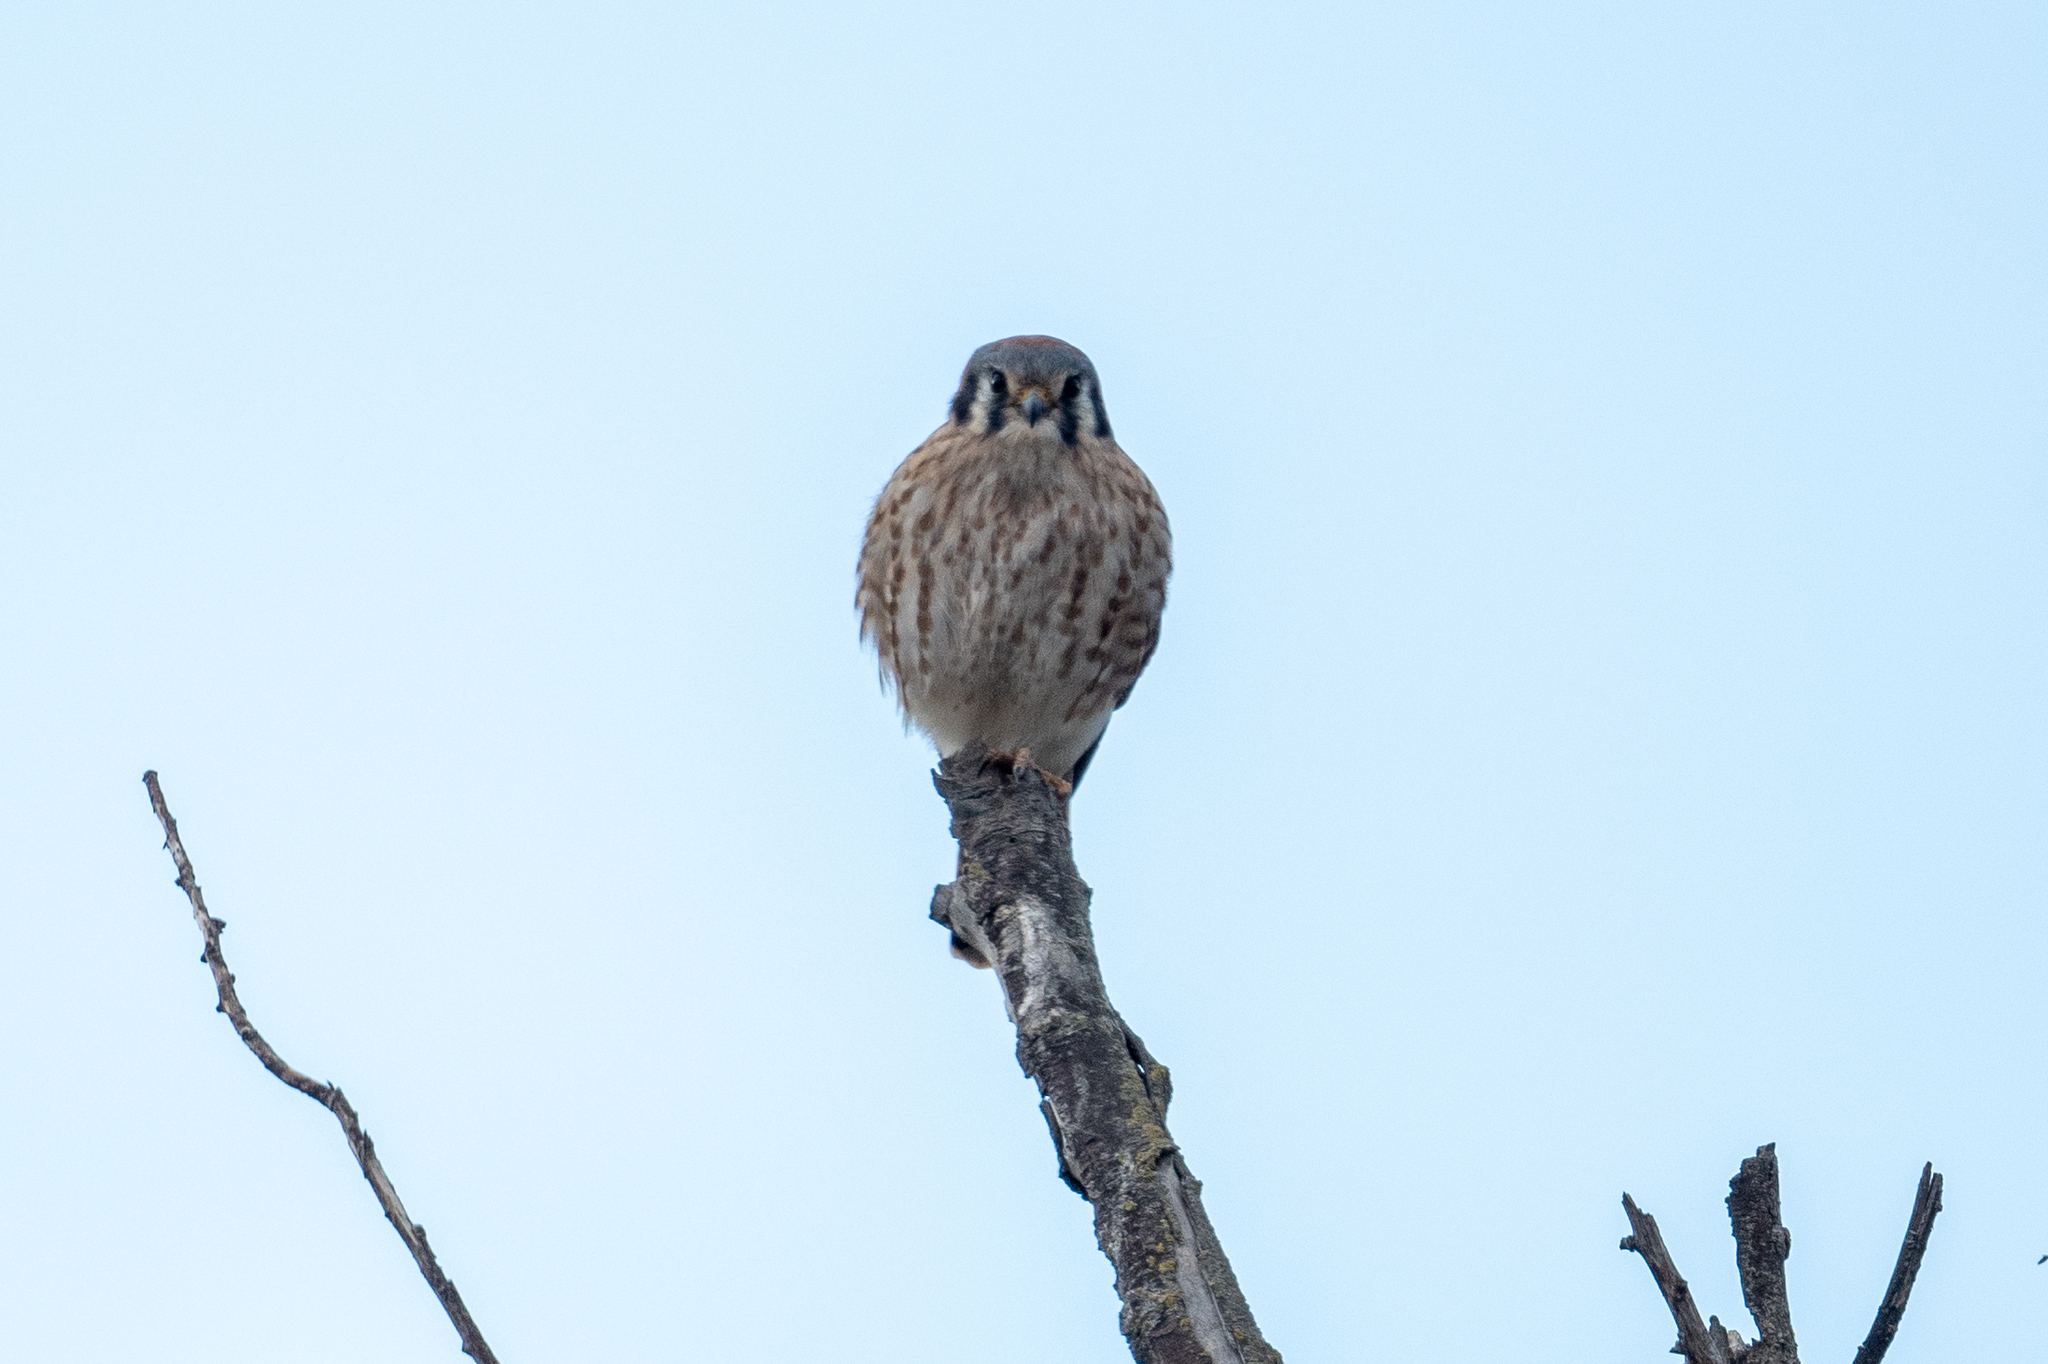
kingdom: Animalia
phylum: Chordata
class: Aves
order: Falconiformes
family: Falconidae
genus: Falco
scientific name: Falco sparverius
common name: American kestrel
